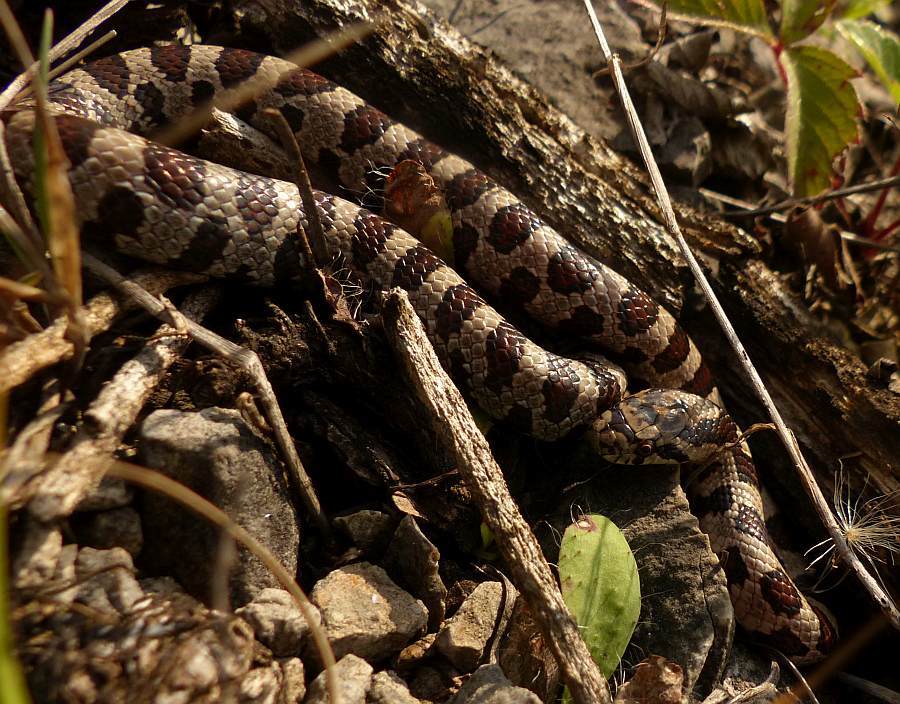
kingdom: Animalia
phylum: Chordata
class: Squamata
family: Colubridae
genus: Lampropeltis
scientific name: Lampropeltis triangulum
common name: Eastern milksnake
